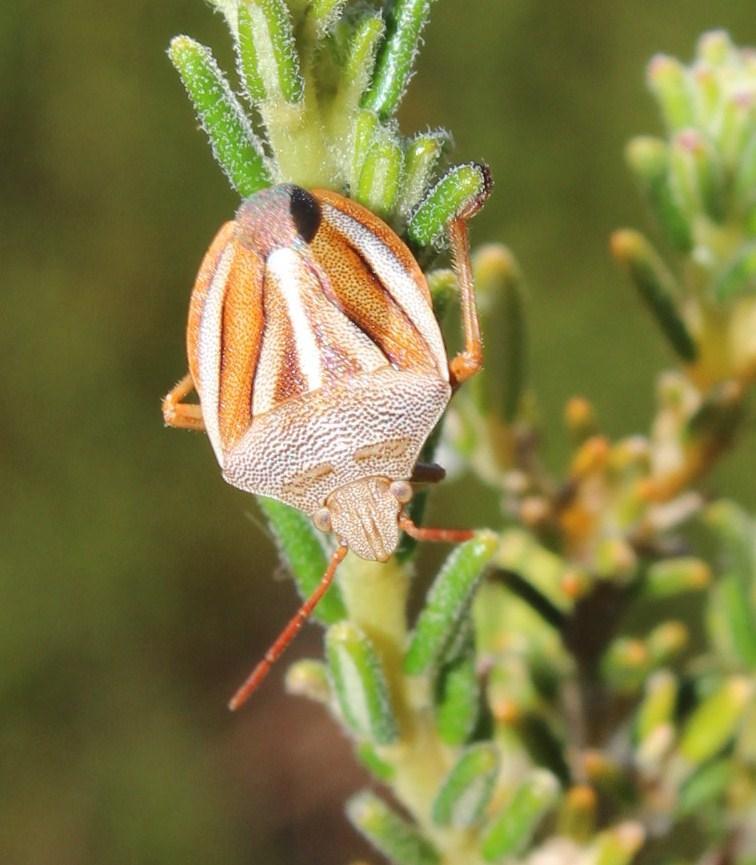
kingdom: Animalia
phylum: Arthropoda
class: Insecta
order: Hemiptera
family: Pentatomidae
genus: Theloris
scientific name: Theloris costata
